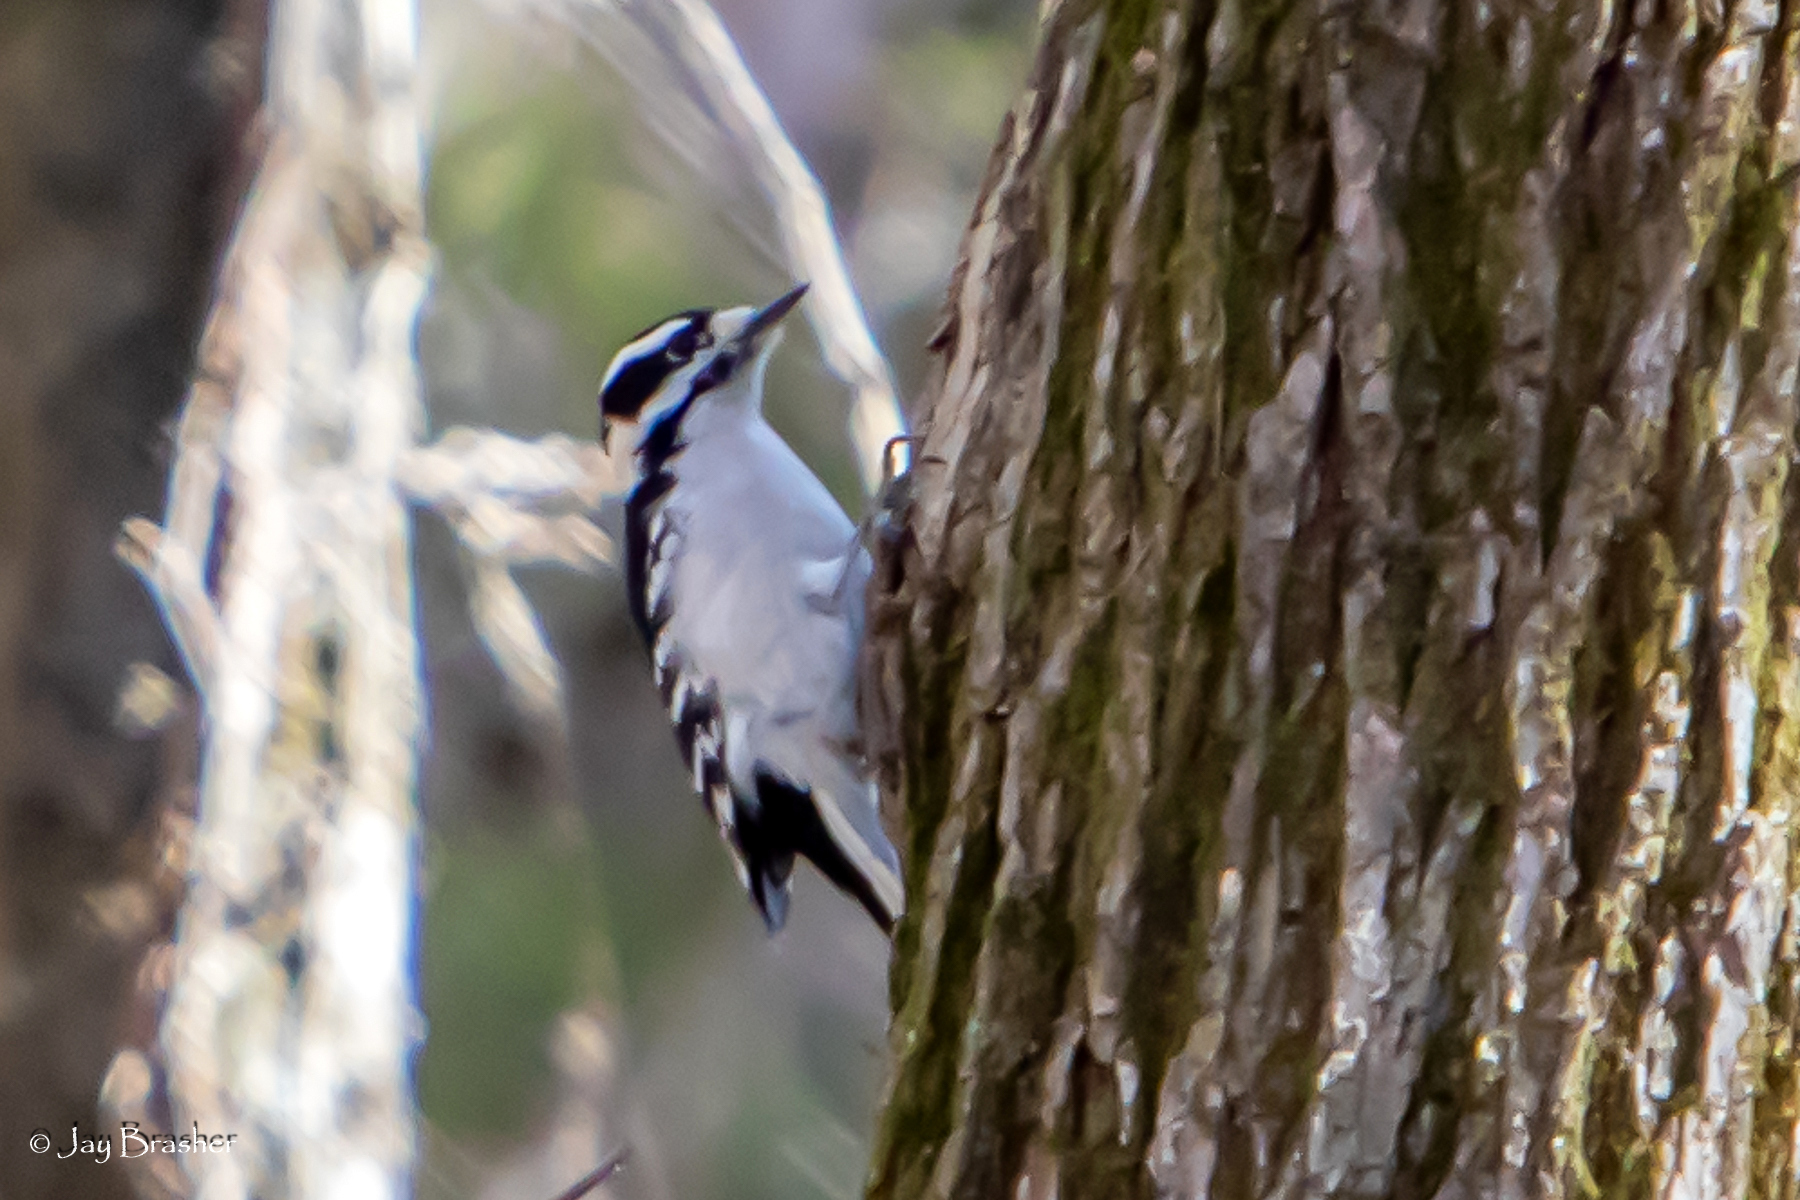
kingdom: Animalia
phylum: Chordata
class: Aves
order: Piciformes
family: Picidae
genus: Dryobates
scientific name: Dryobates pubescens
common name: Downy woodpecker
